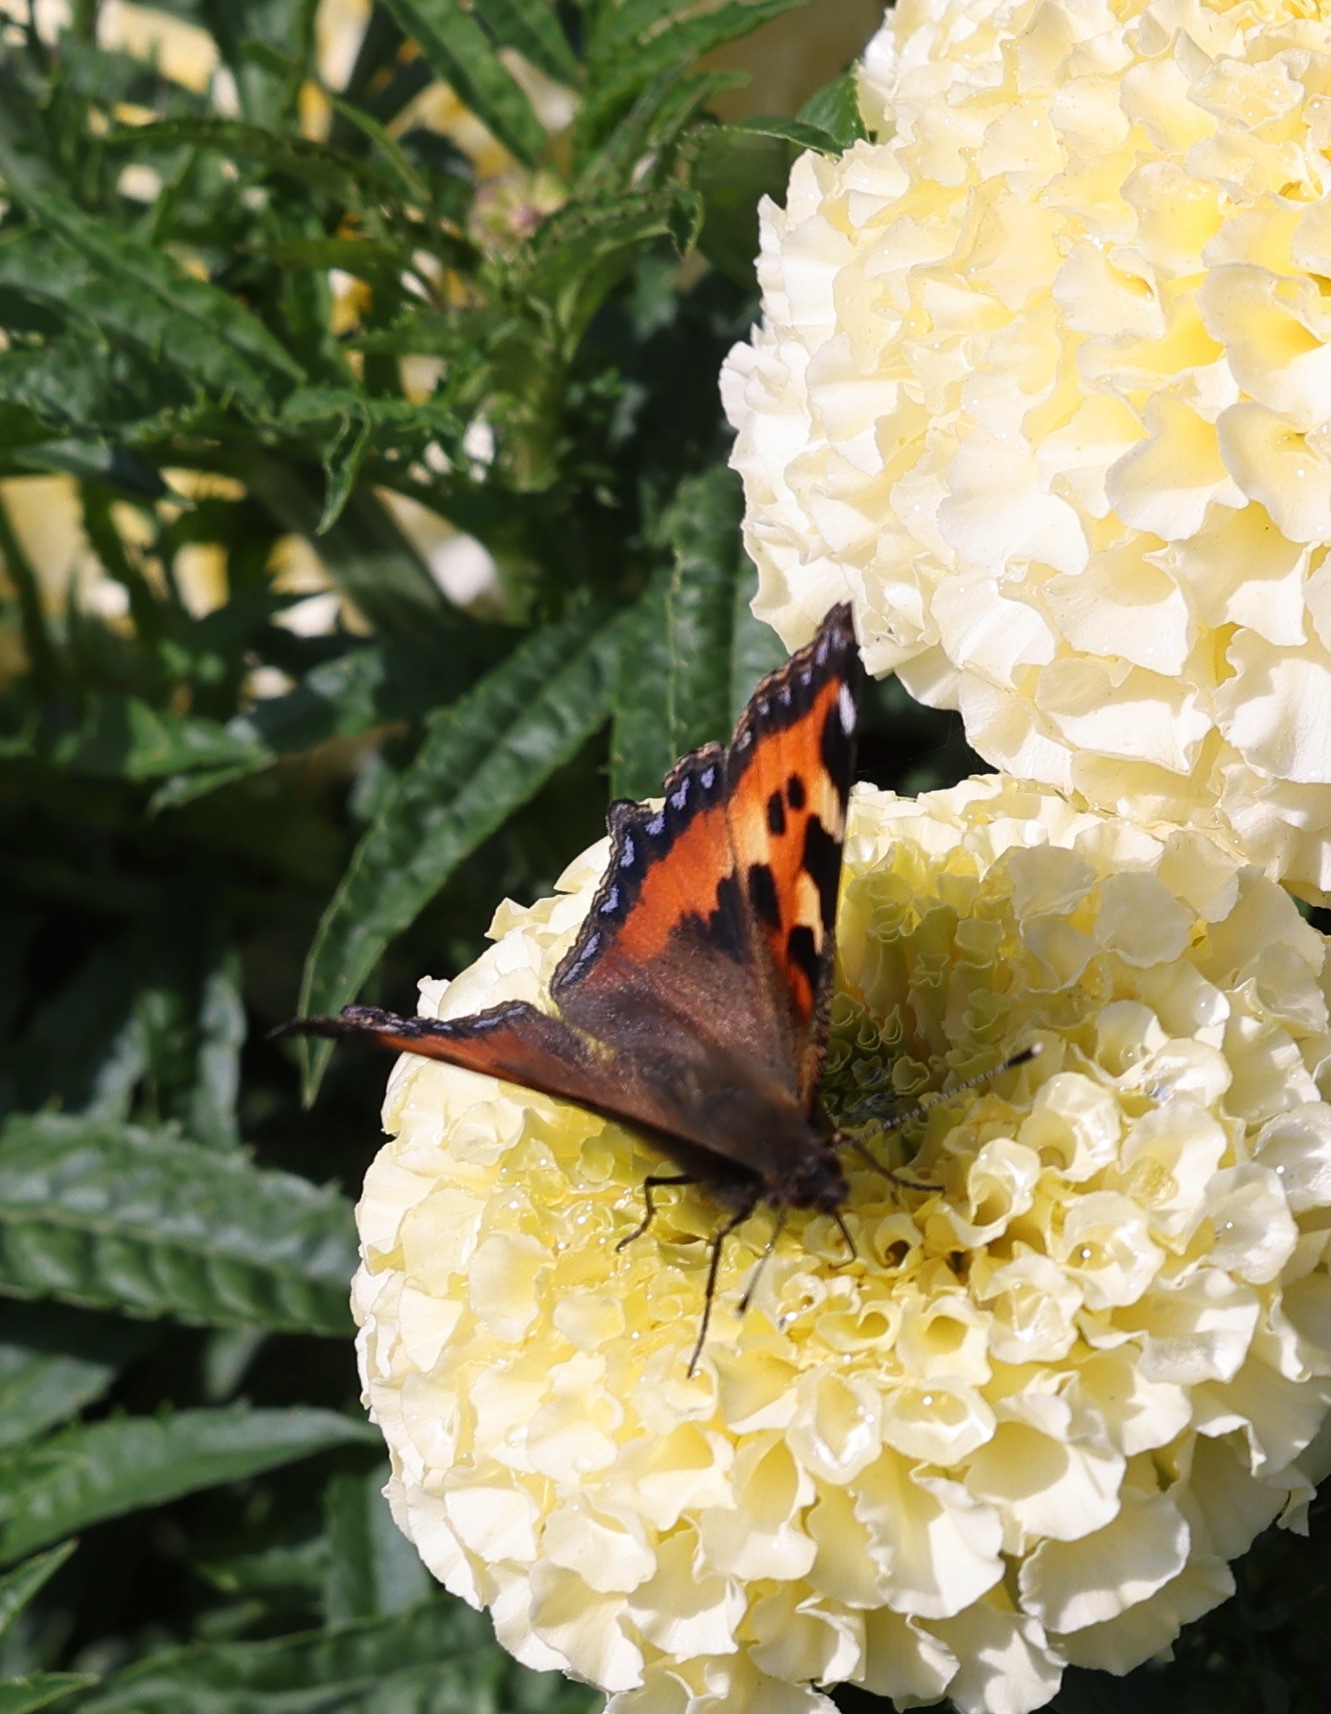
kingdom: Animalia
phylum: Arthropoda
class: Insecta
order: Lepidoptera
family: Nymphalidae
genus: Aglais
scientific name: Aglais urticae
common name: Small tortoiseshell
